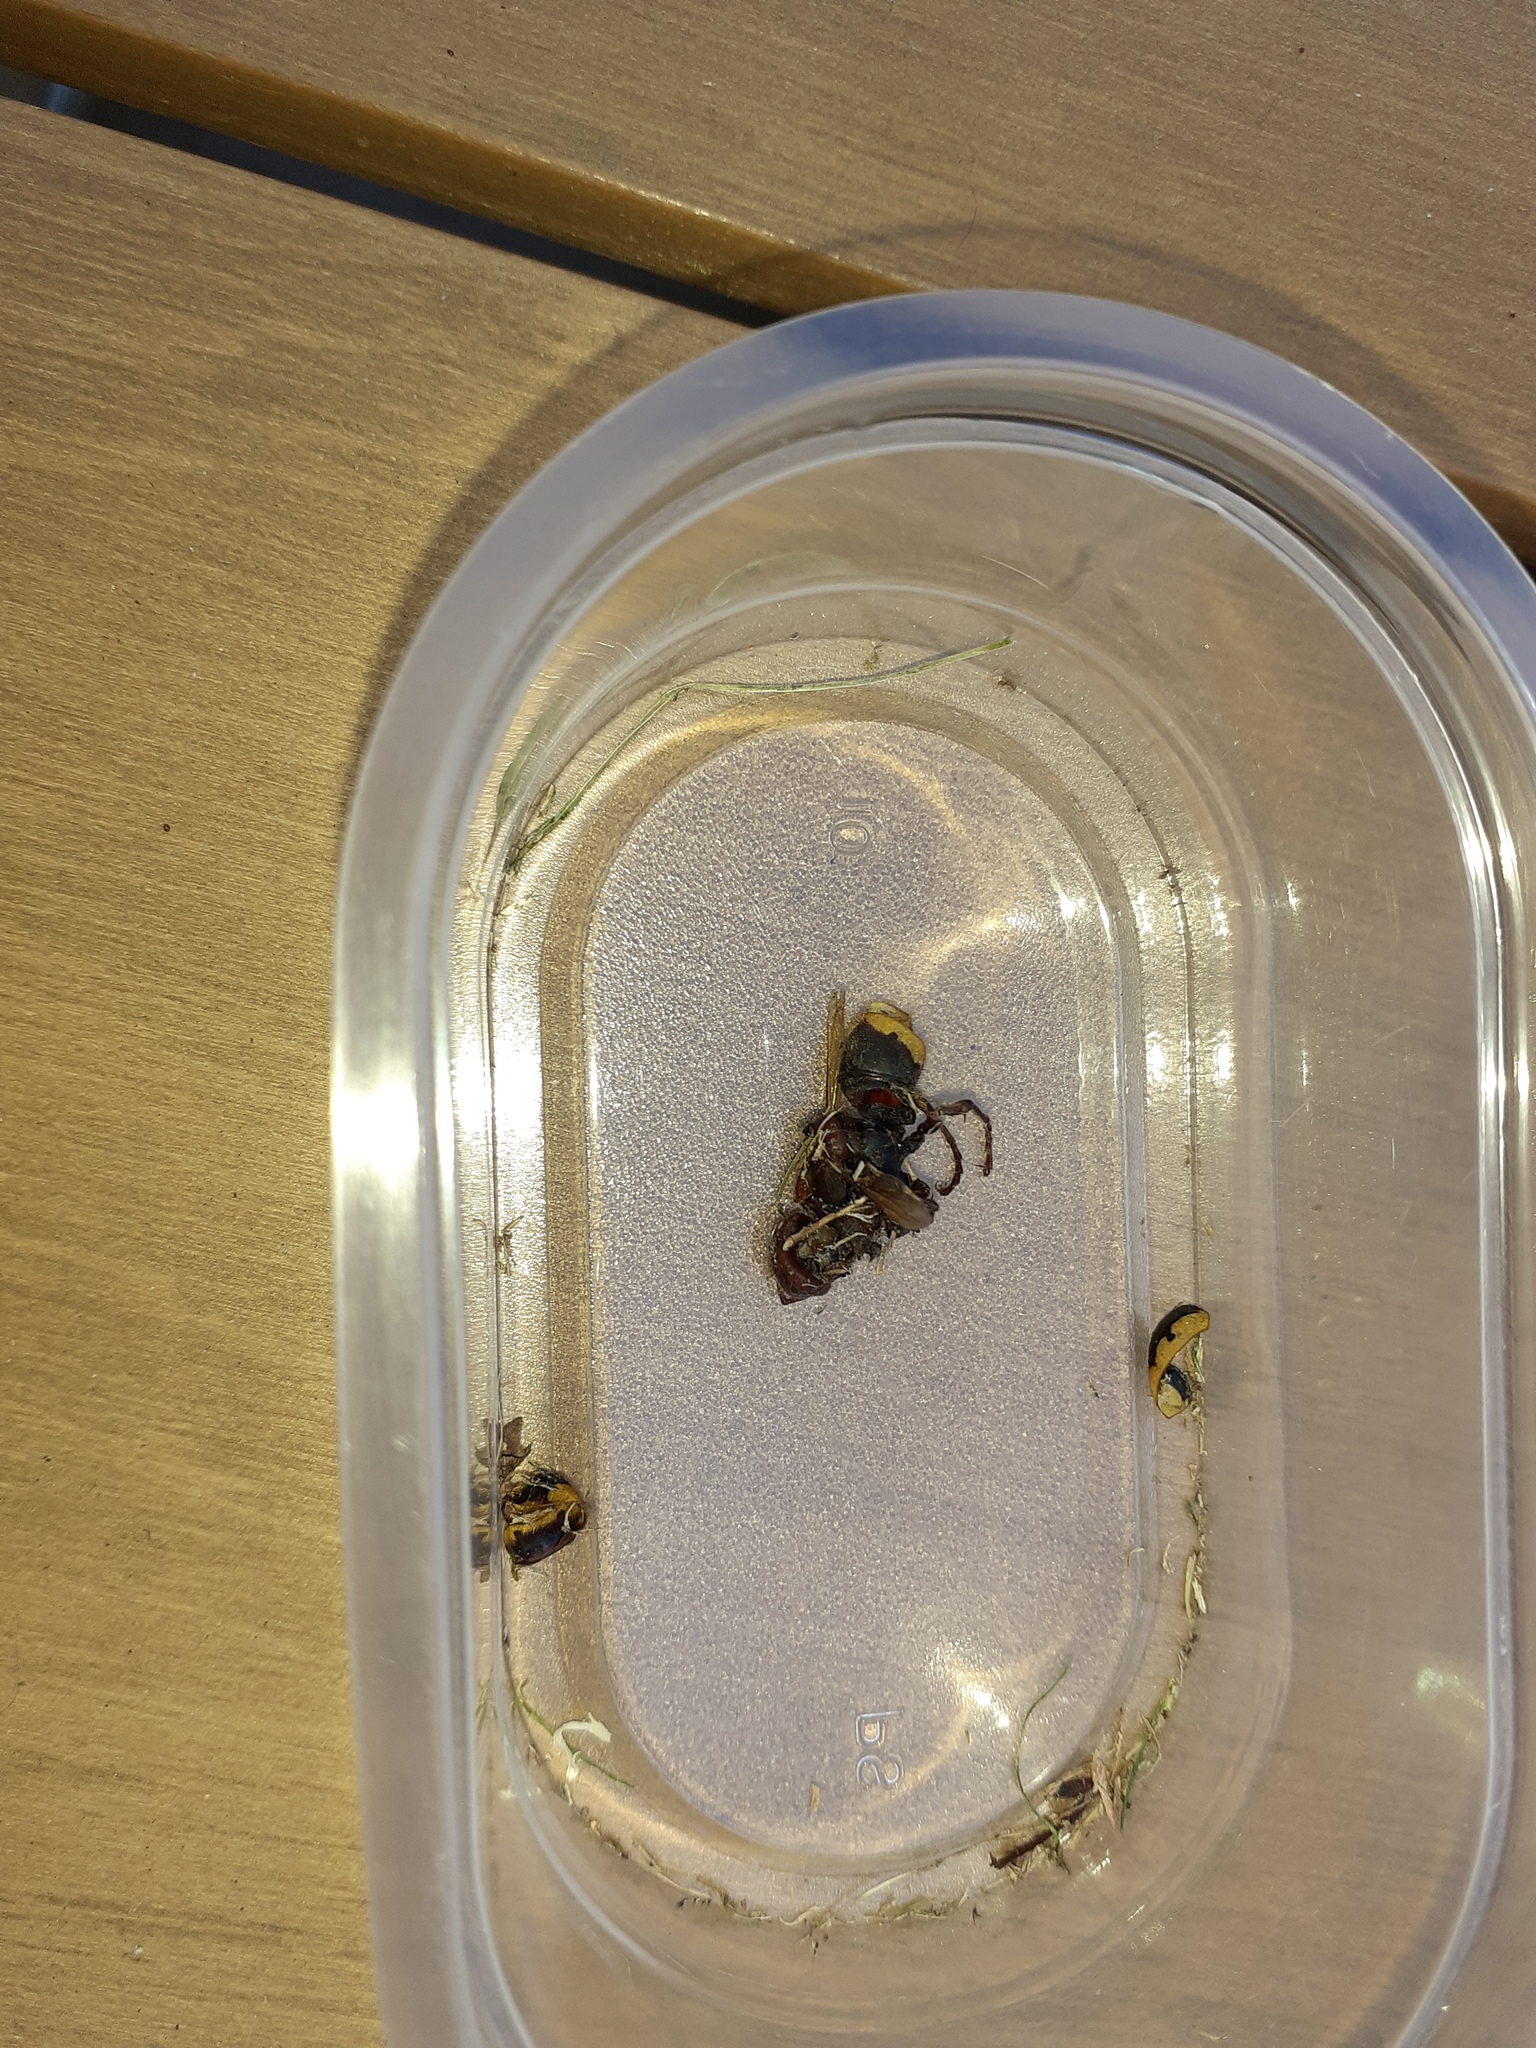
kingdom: Animalia
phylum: Arthropoda
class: Insecta
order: Hymenoptera
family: Vespidae
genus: Vespa
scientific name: Vespa crabro
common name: Hornet
